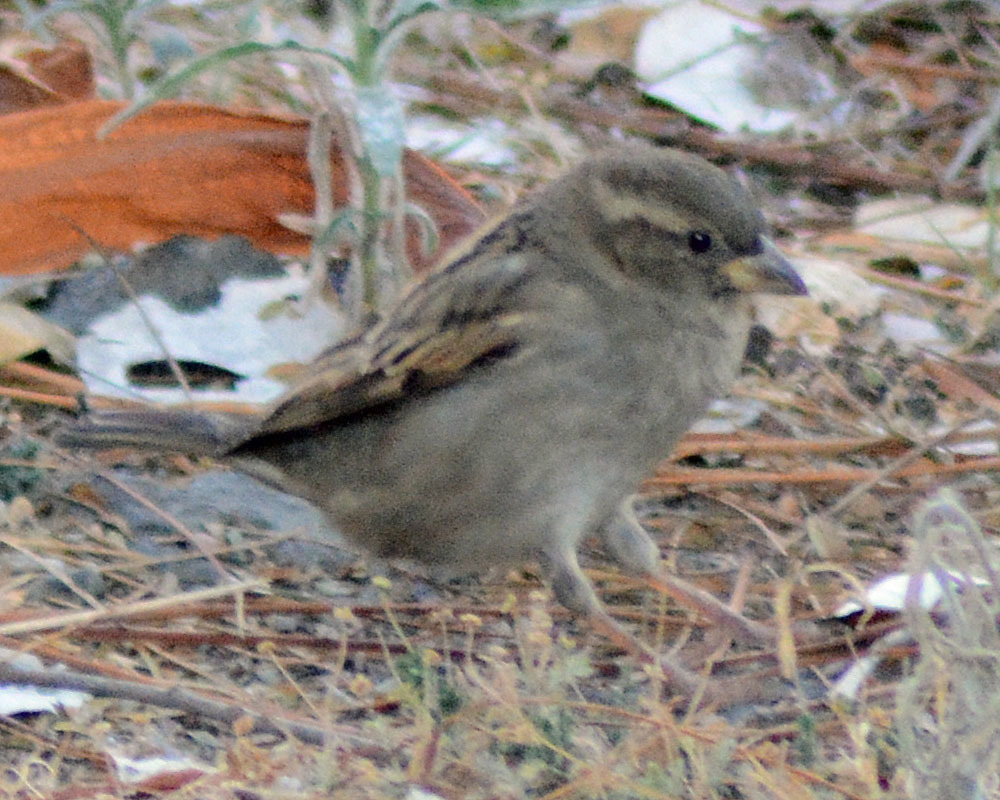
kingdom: Animalia
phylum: Chordata
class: Aves
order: Passeriformes
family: Passeridae
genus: Passer
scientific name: Passer domesticus
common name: House sparrow
